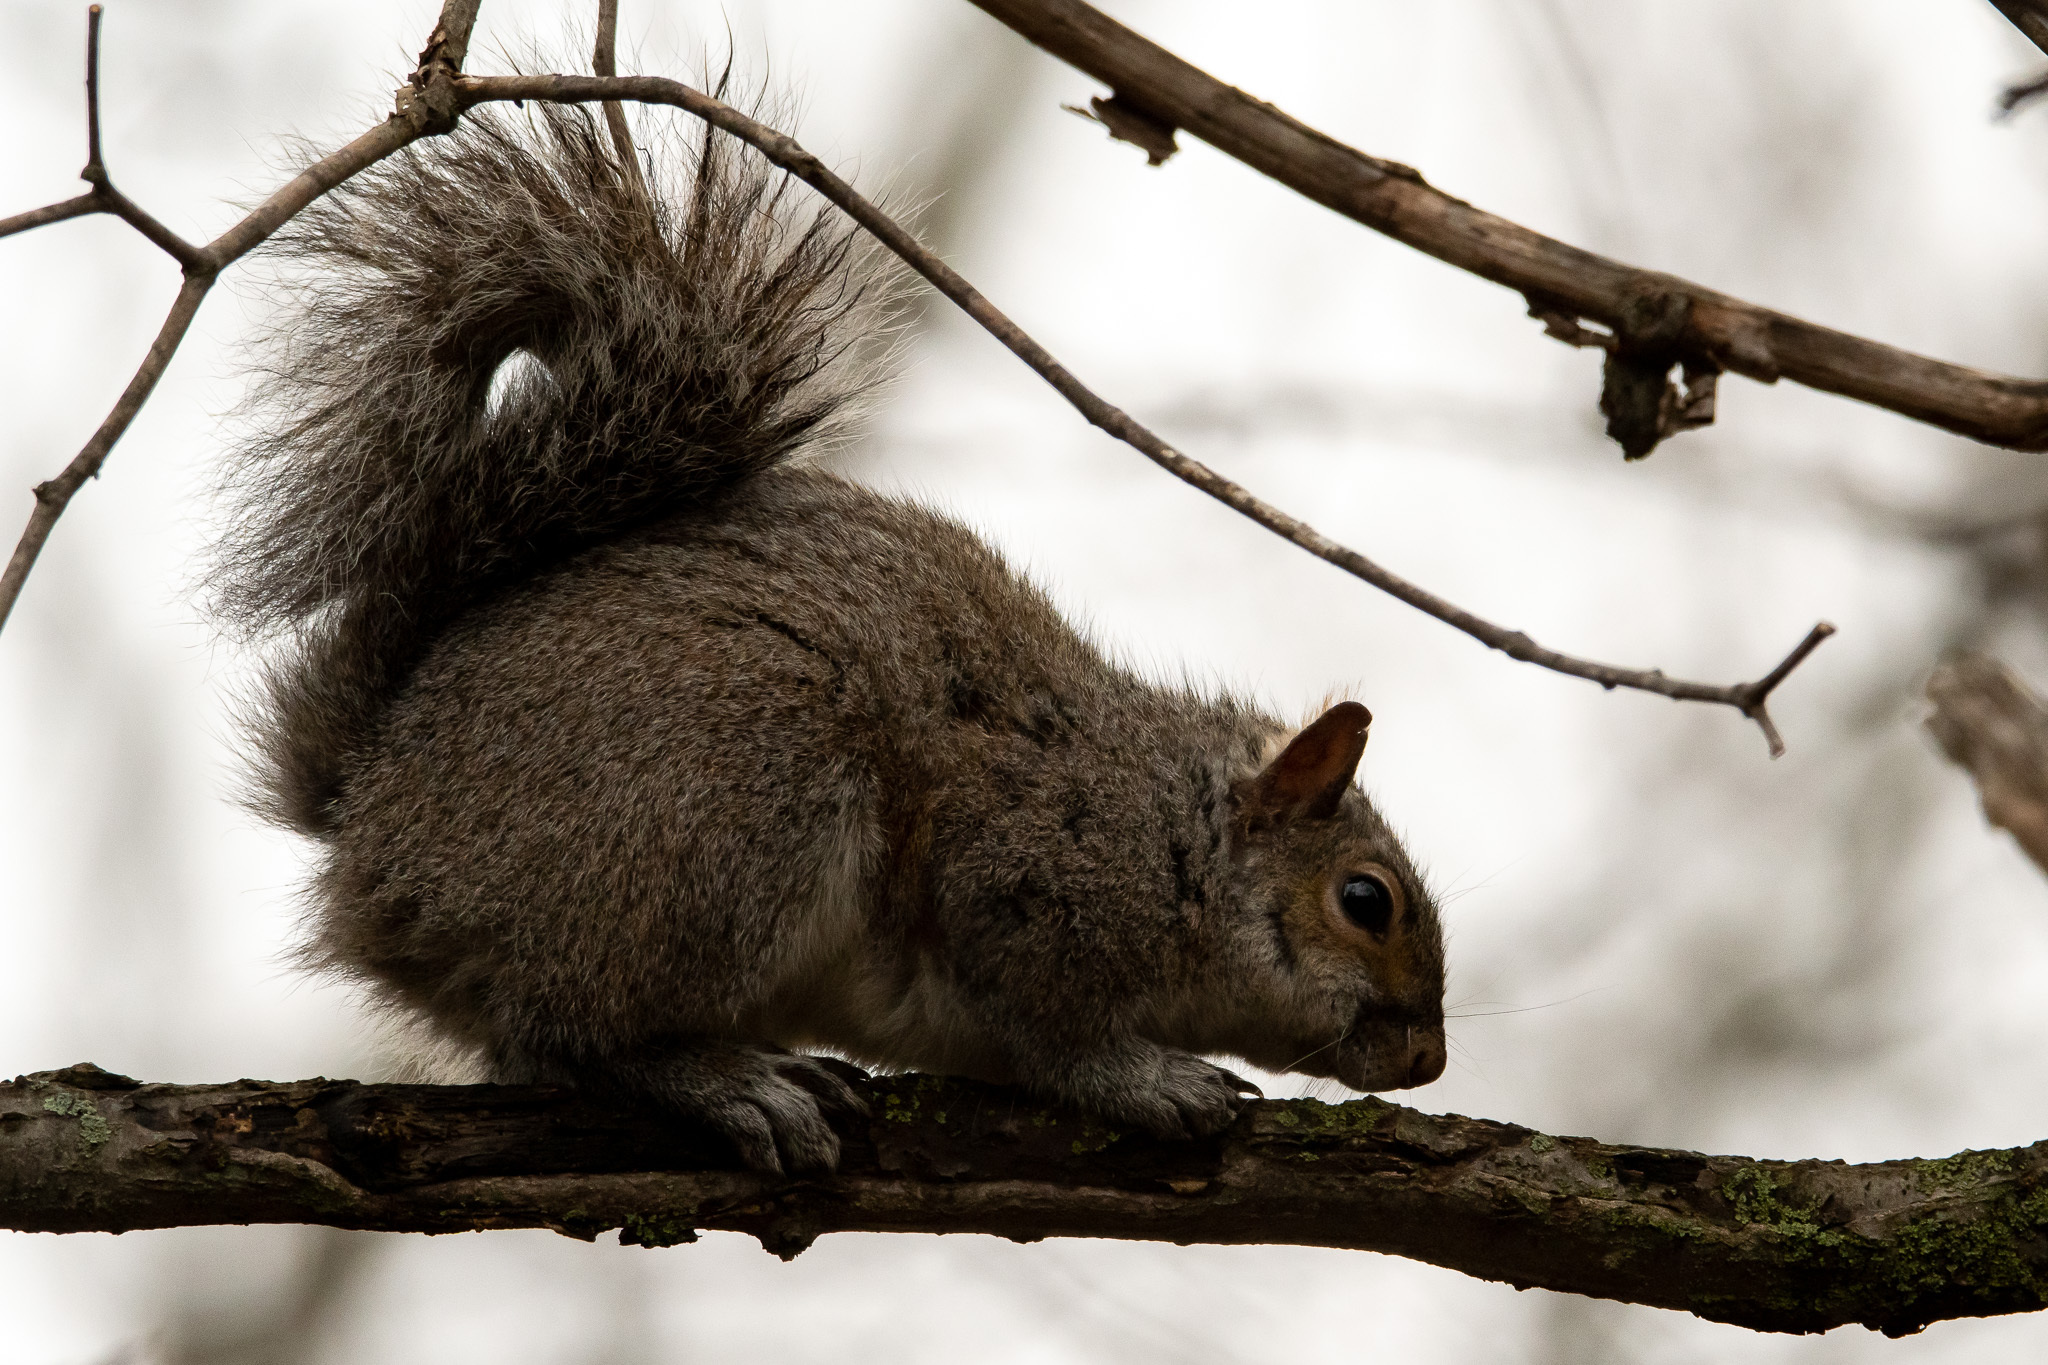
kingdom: Animalia
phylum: Chordata
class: Mammalia
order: Rodentia
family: Sciuridae
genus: Sciurus
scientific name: Sciurus carolinensis
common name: Eastern gray squirrel
